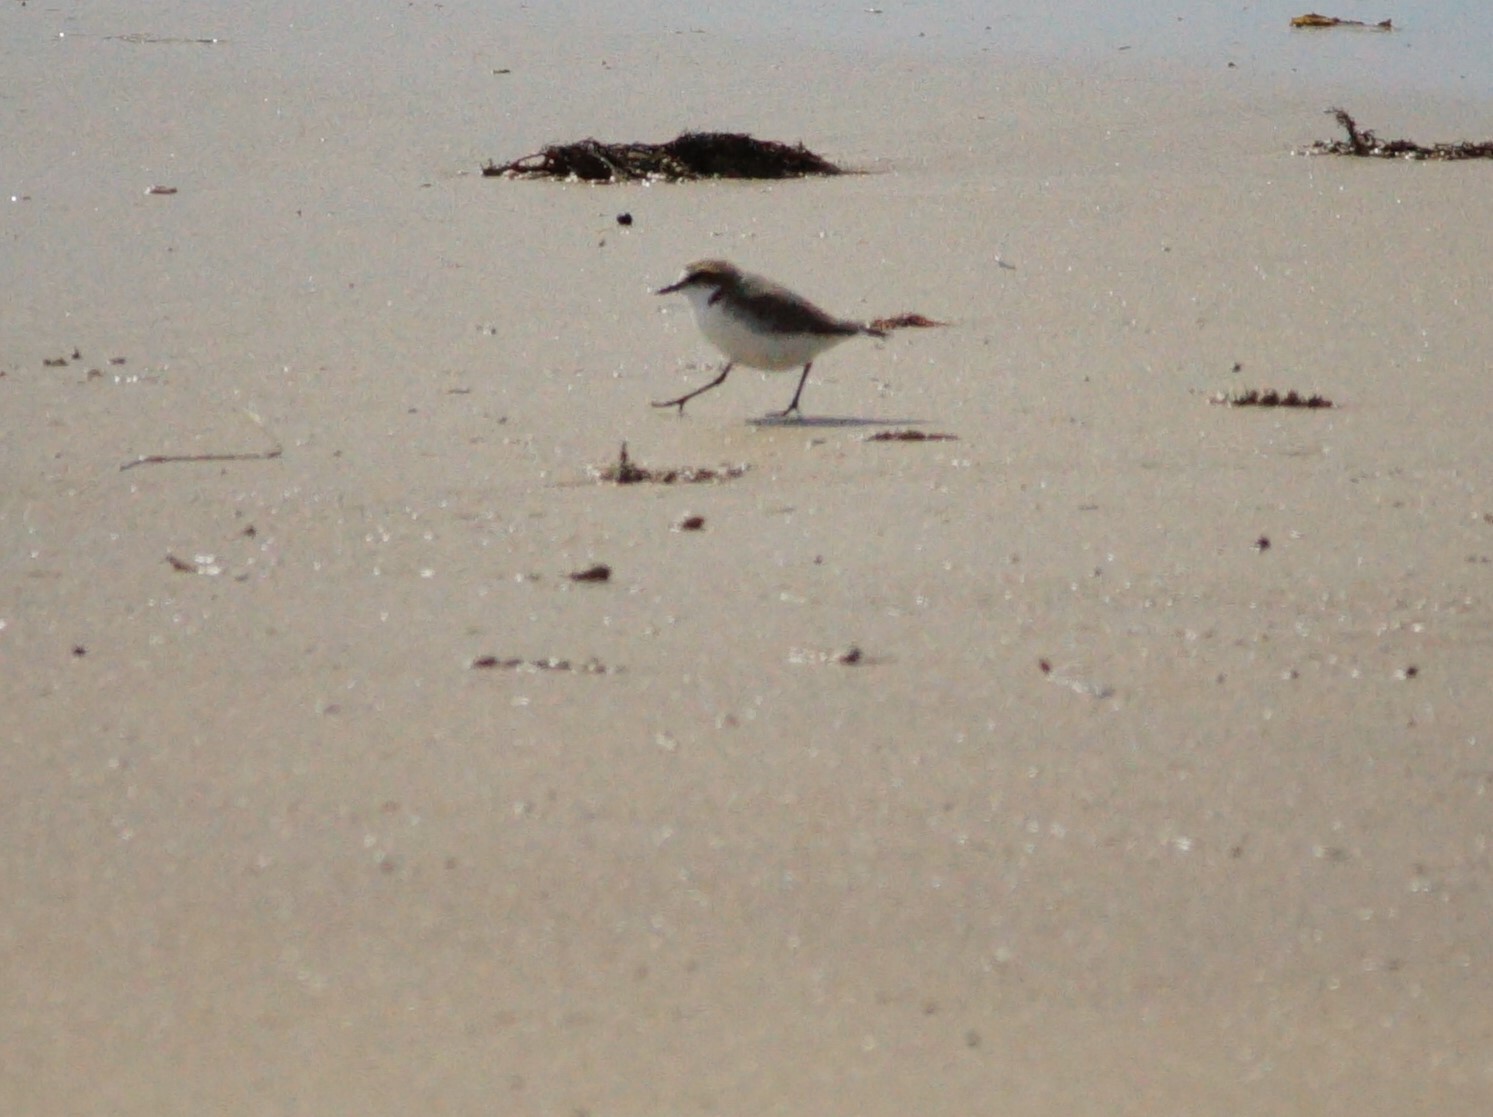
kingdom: Animalia
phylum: Chordata
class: Aves
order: Charadriiformes
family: Charadriidae
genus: Anarhynchus
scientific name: Anarhynchus
